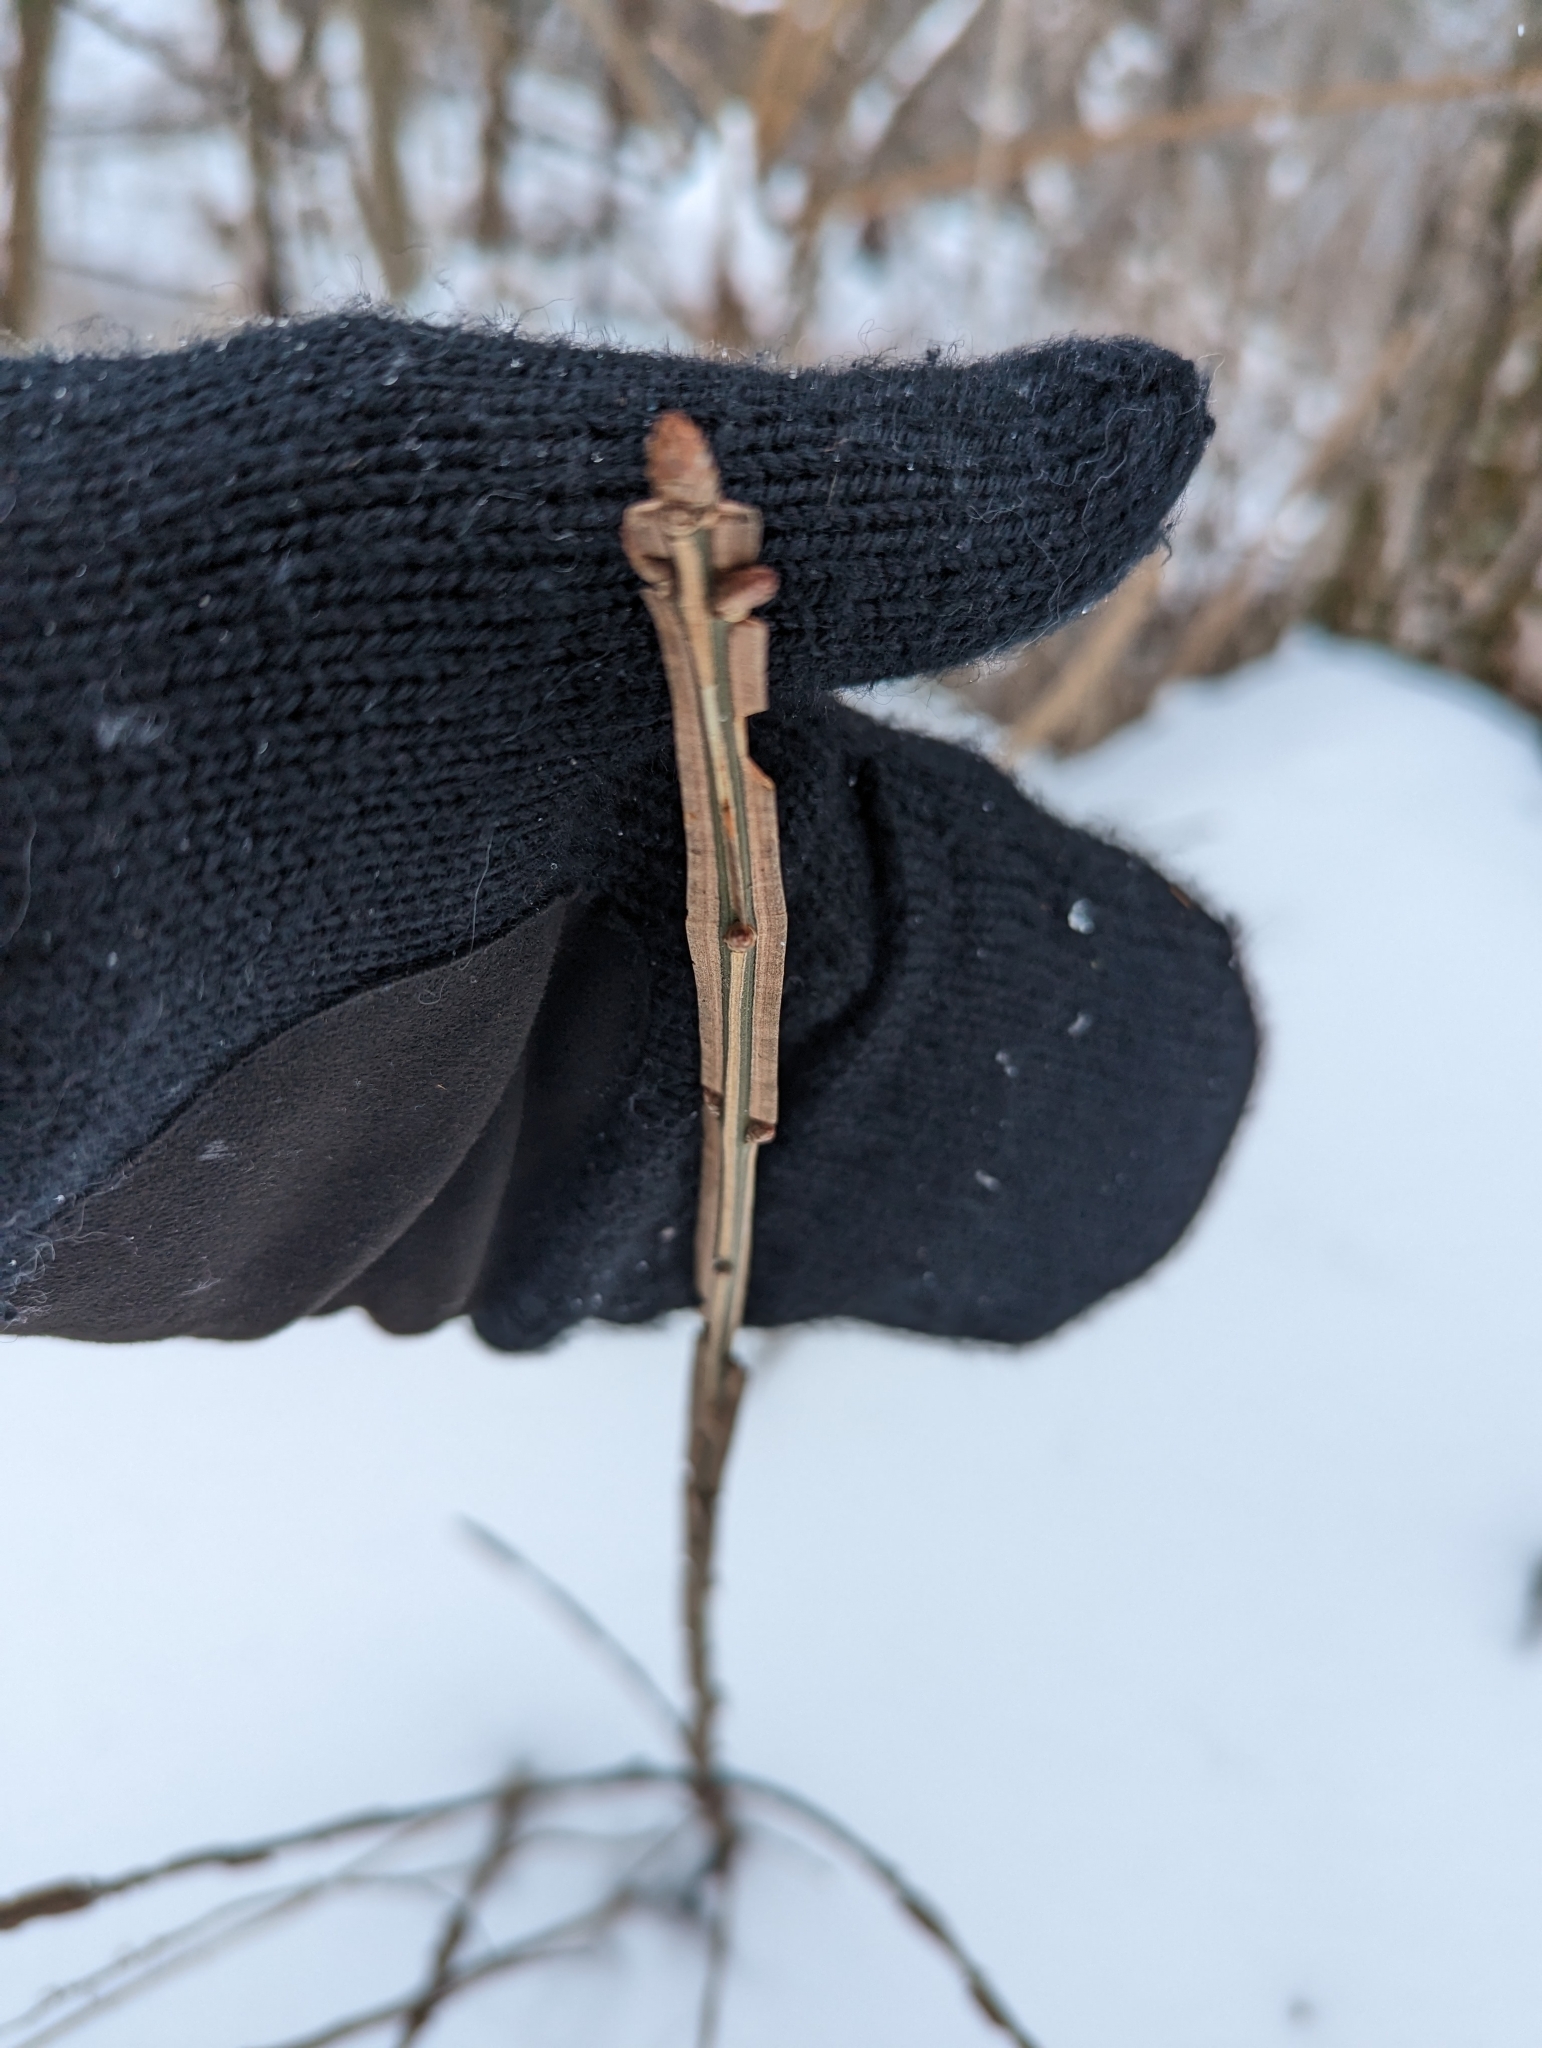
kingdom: Plantae
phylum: Tracheophyta
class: Magnoliopsida
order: Celastrales
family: Celastraceae
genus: Euonymus
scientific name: Euonymus alatus
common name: Winged euonymus
